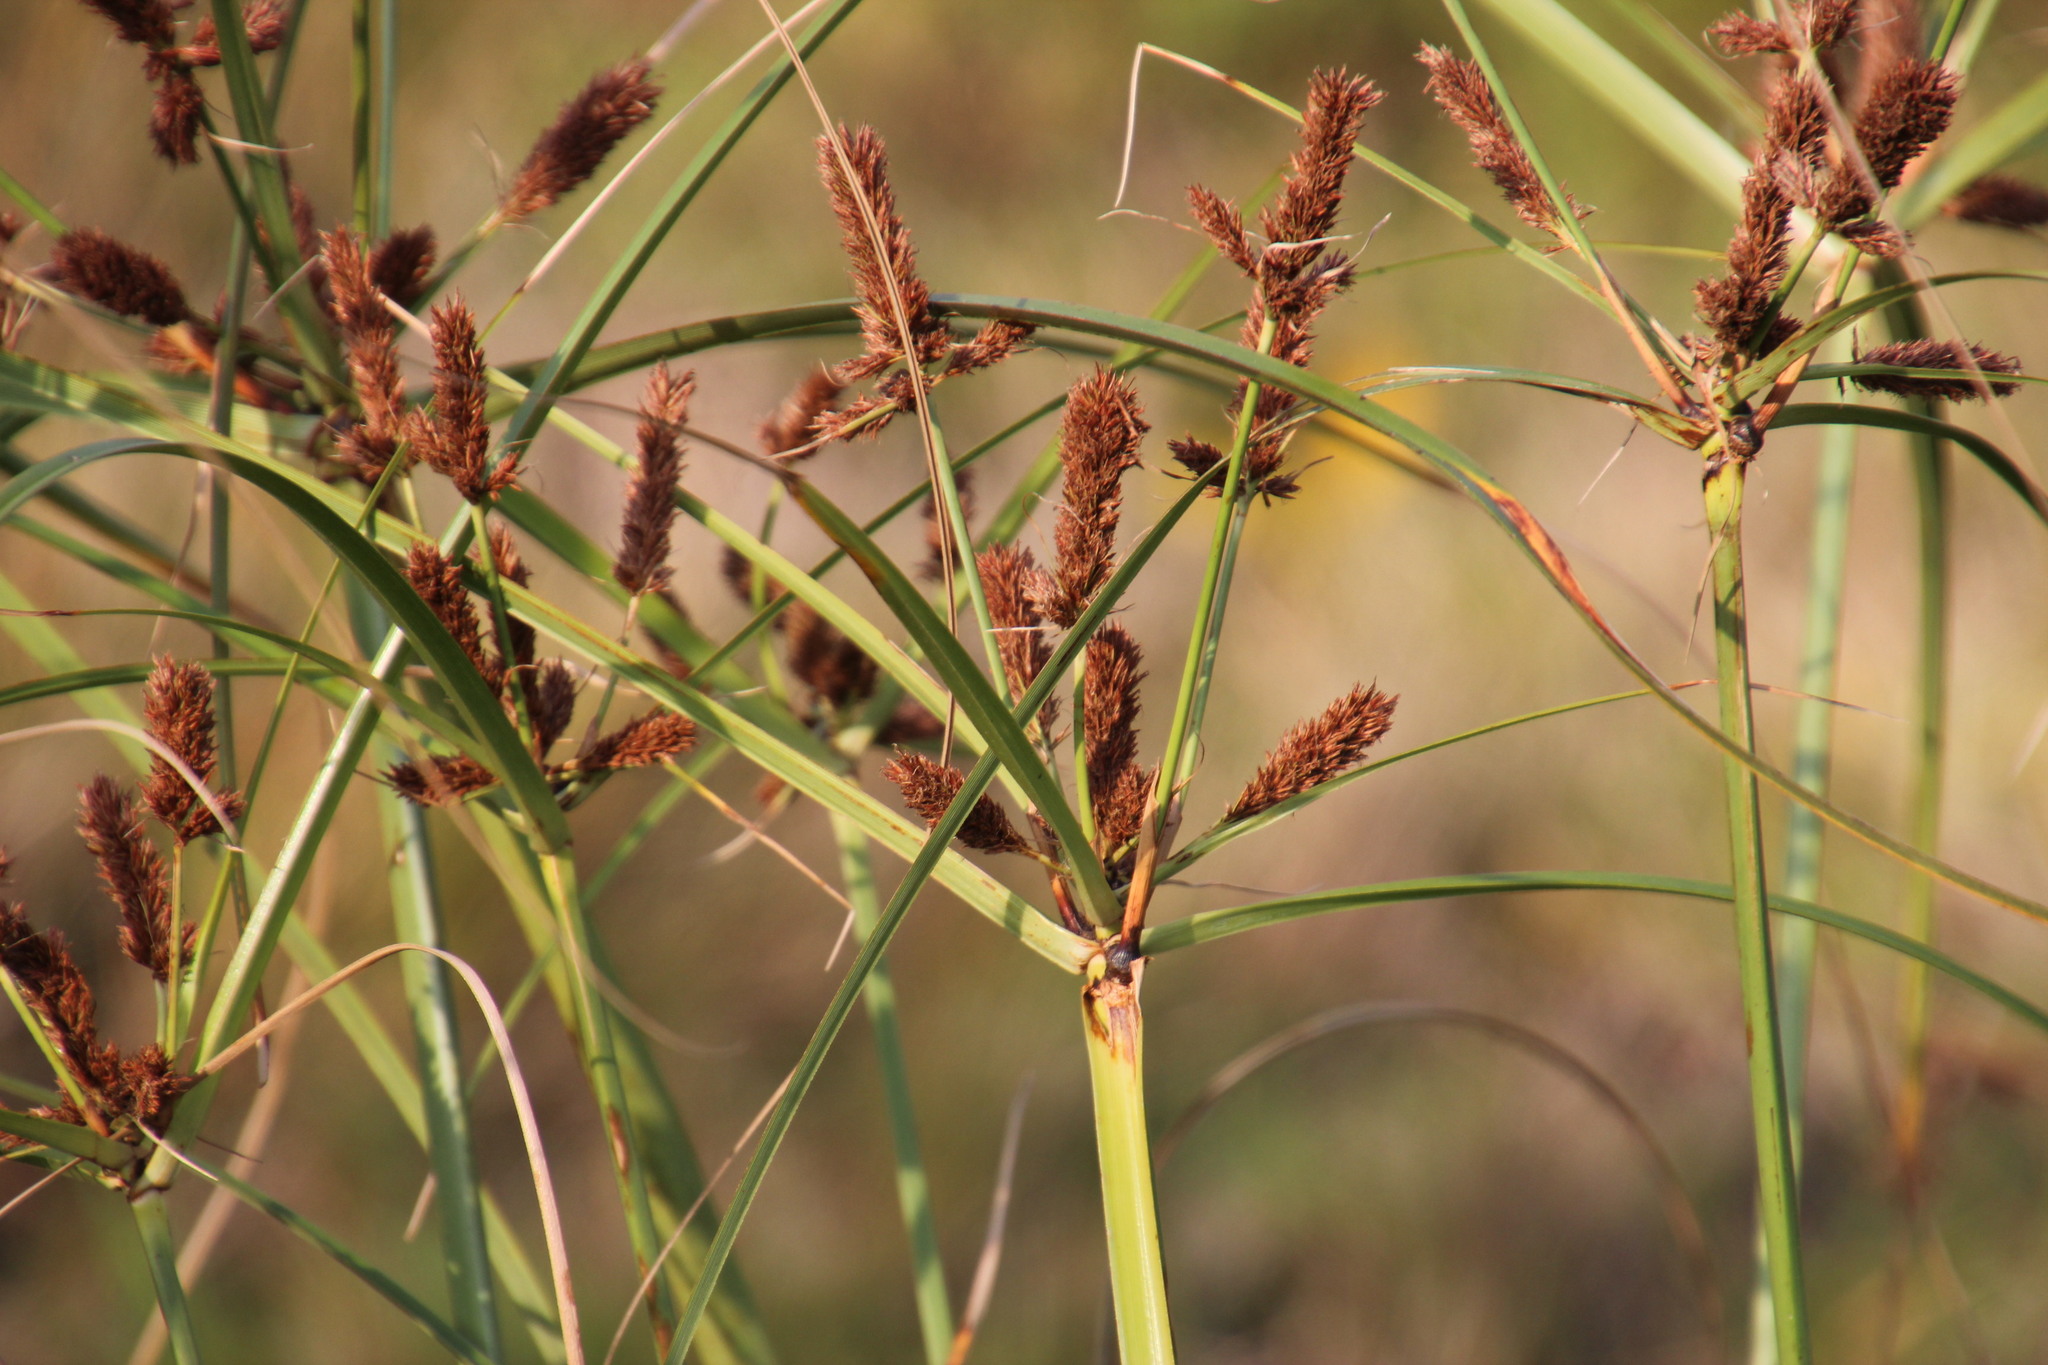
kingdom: Plantae
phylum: Tracheophyta
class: Liliopsida
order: Poales
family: Cyperaceae
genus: Cyperus
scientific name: Cyperus thunbergii
